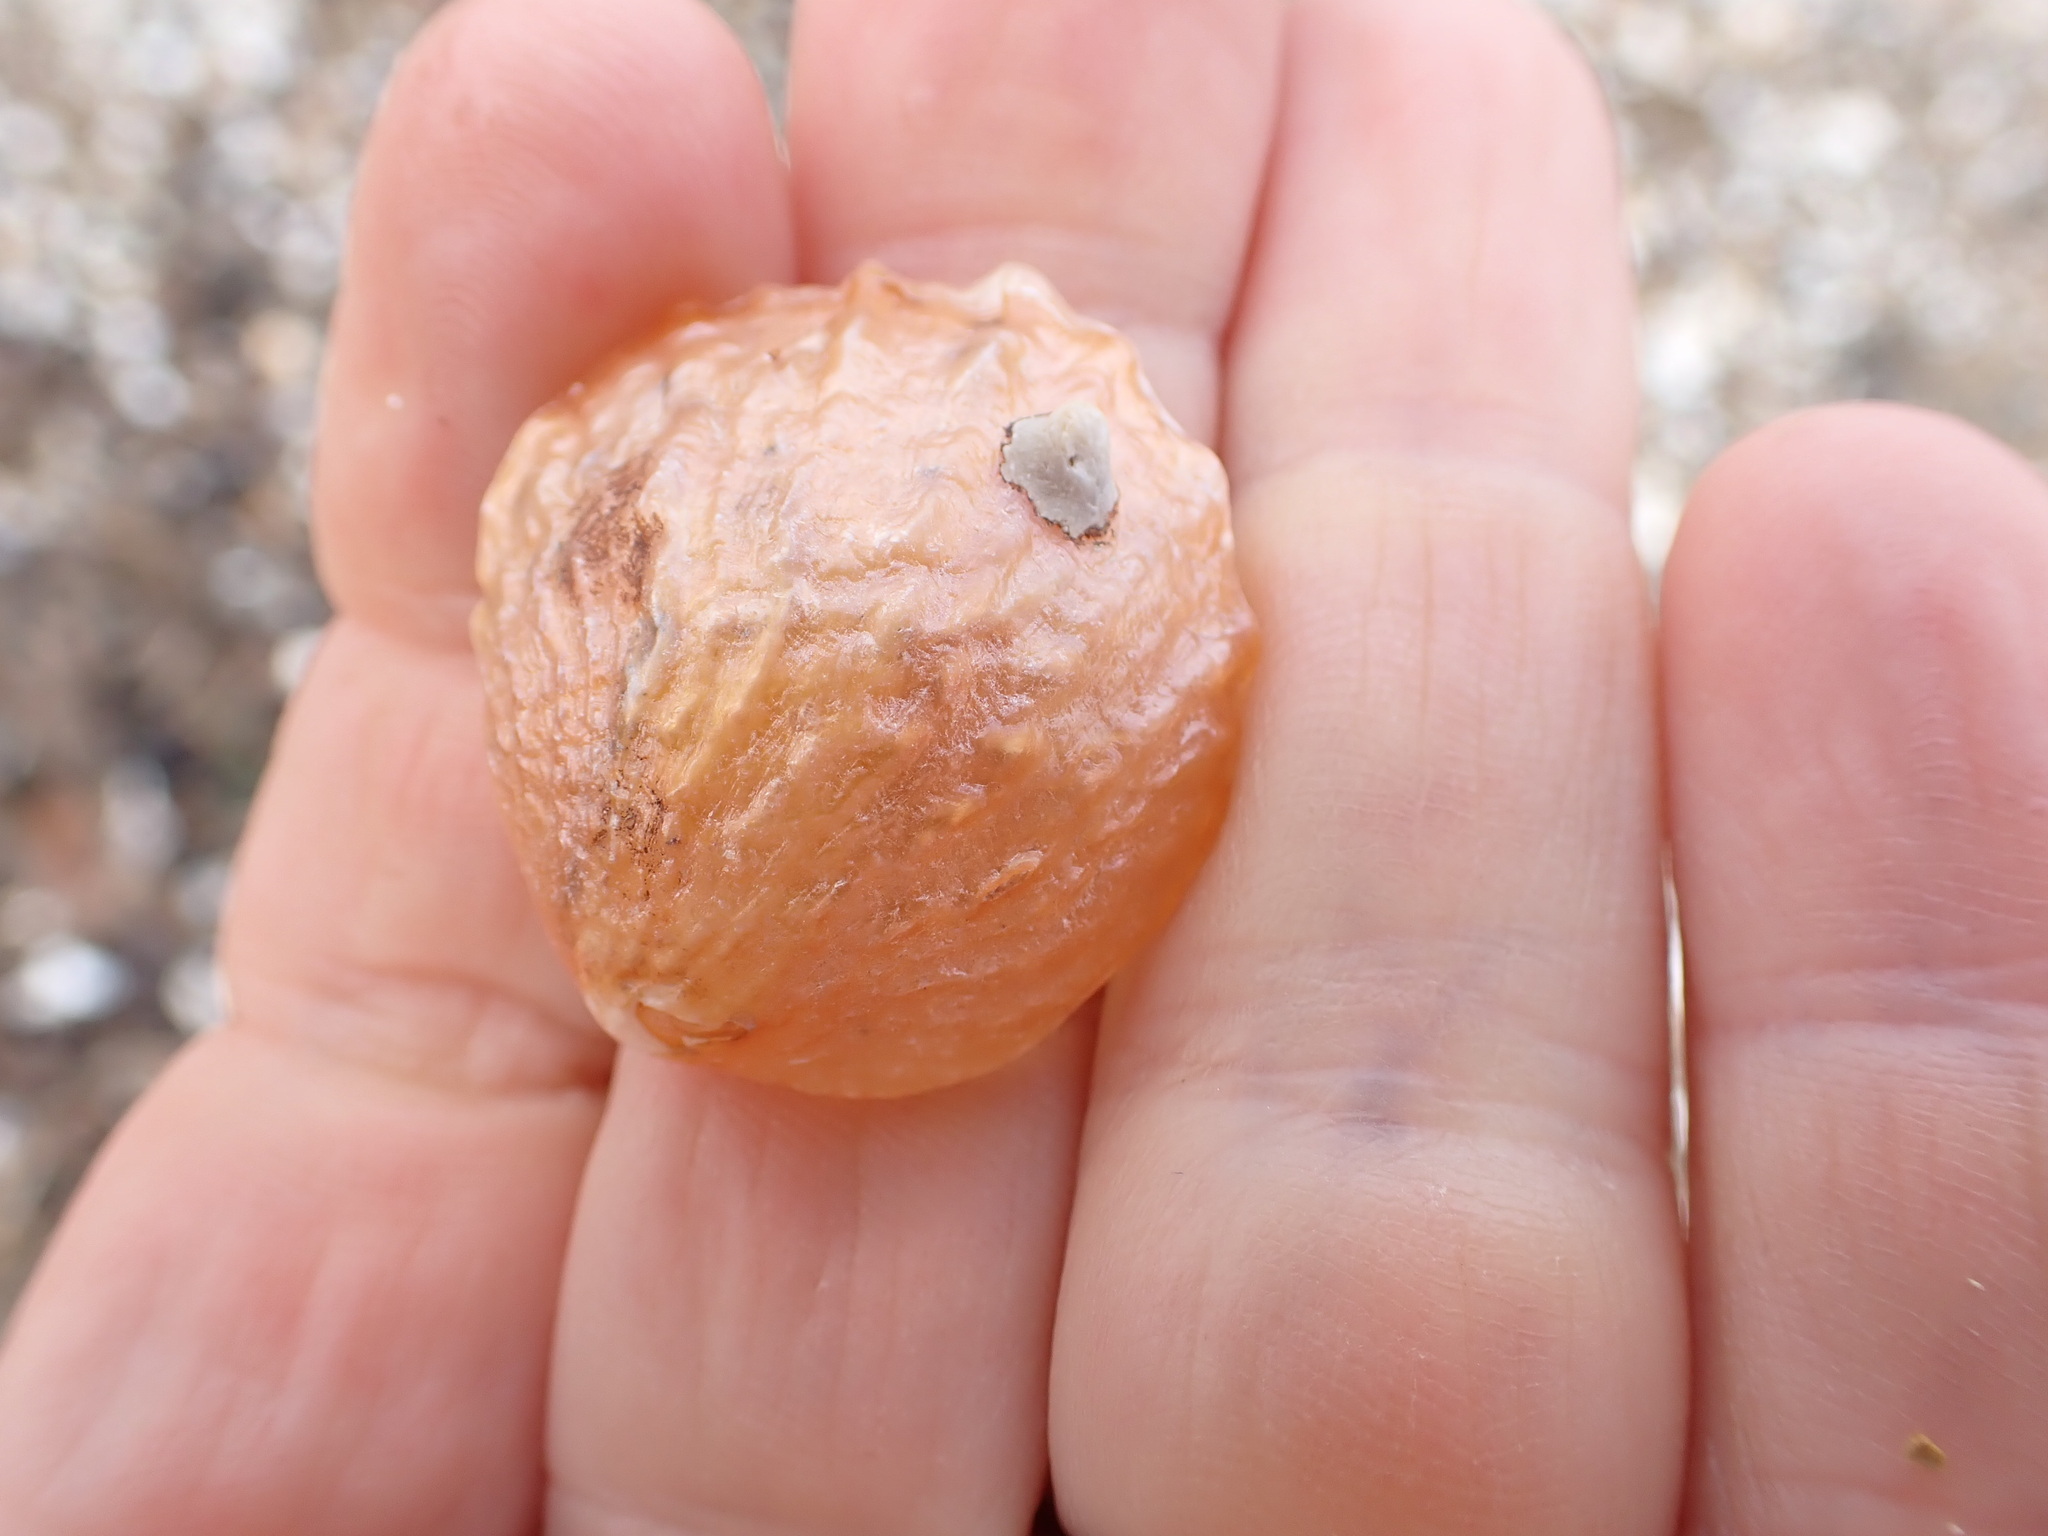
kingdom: Animalia
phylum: Mollusca
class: Bivalvia
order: Pectinida
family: Anomiidae
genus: Anomia
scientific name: Anomia trigonopsis
